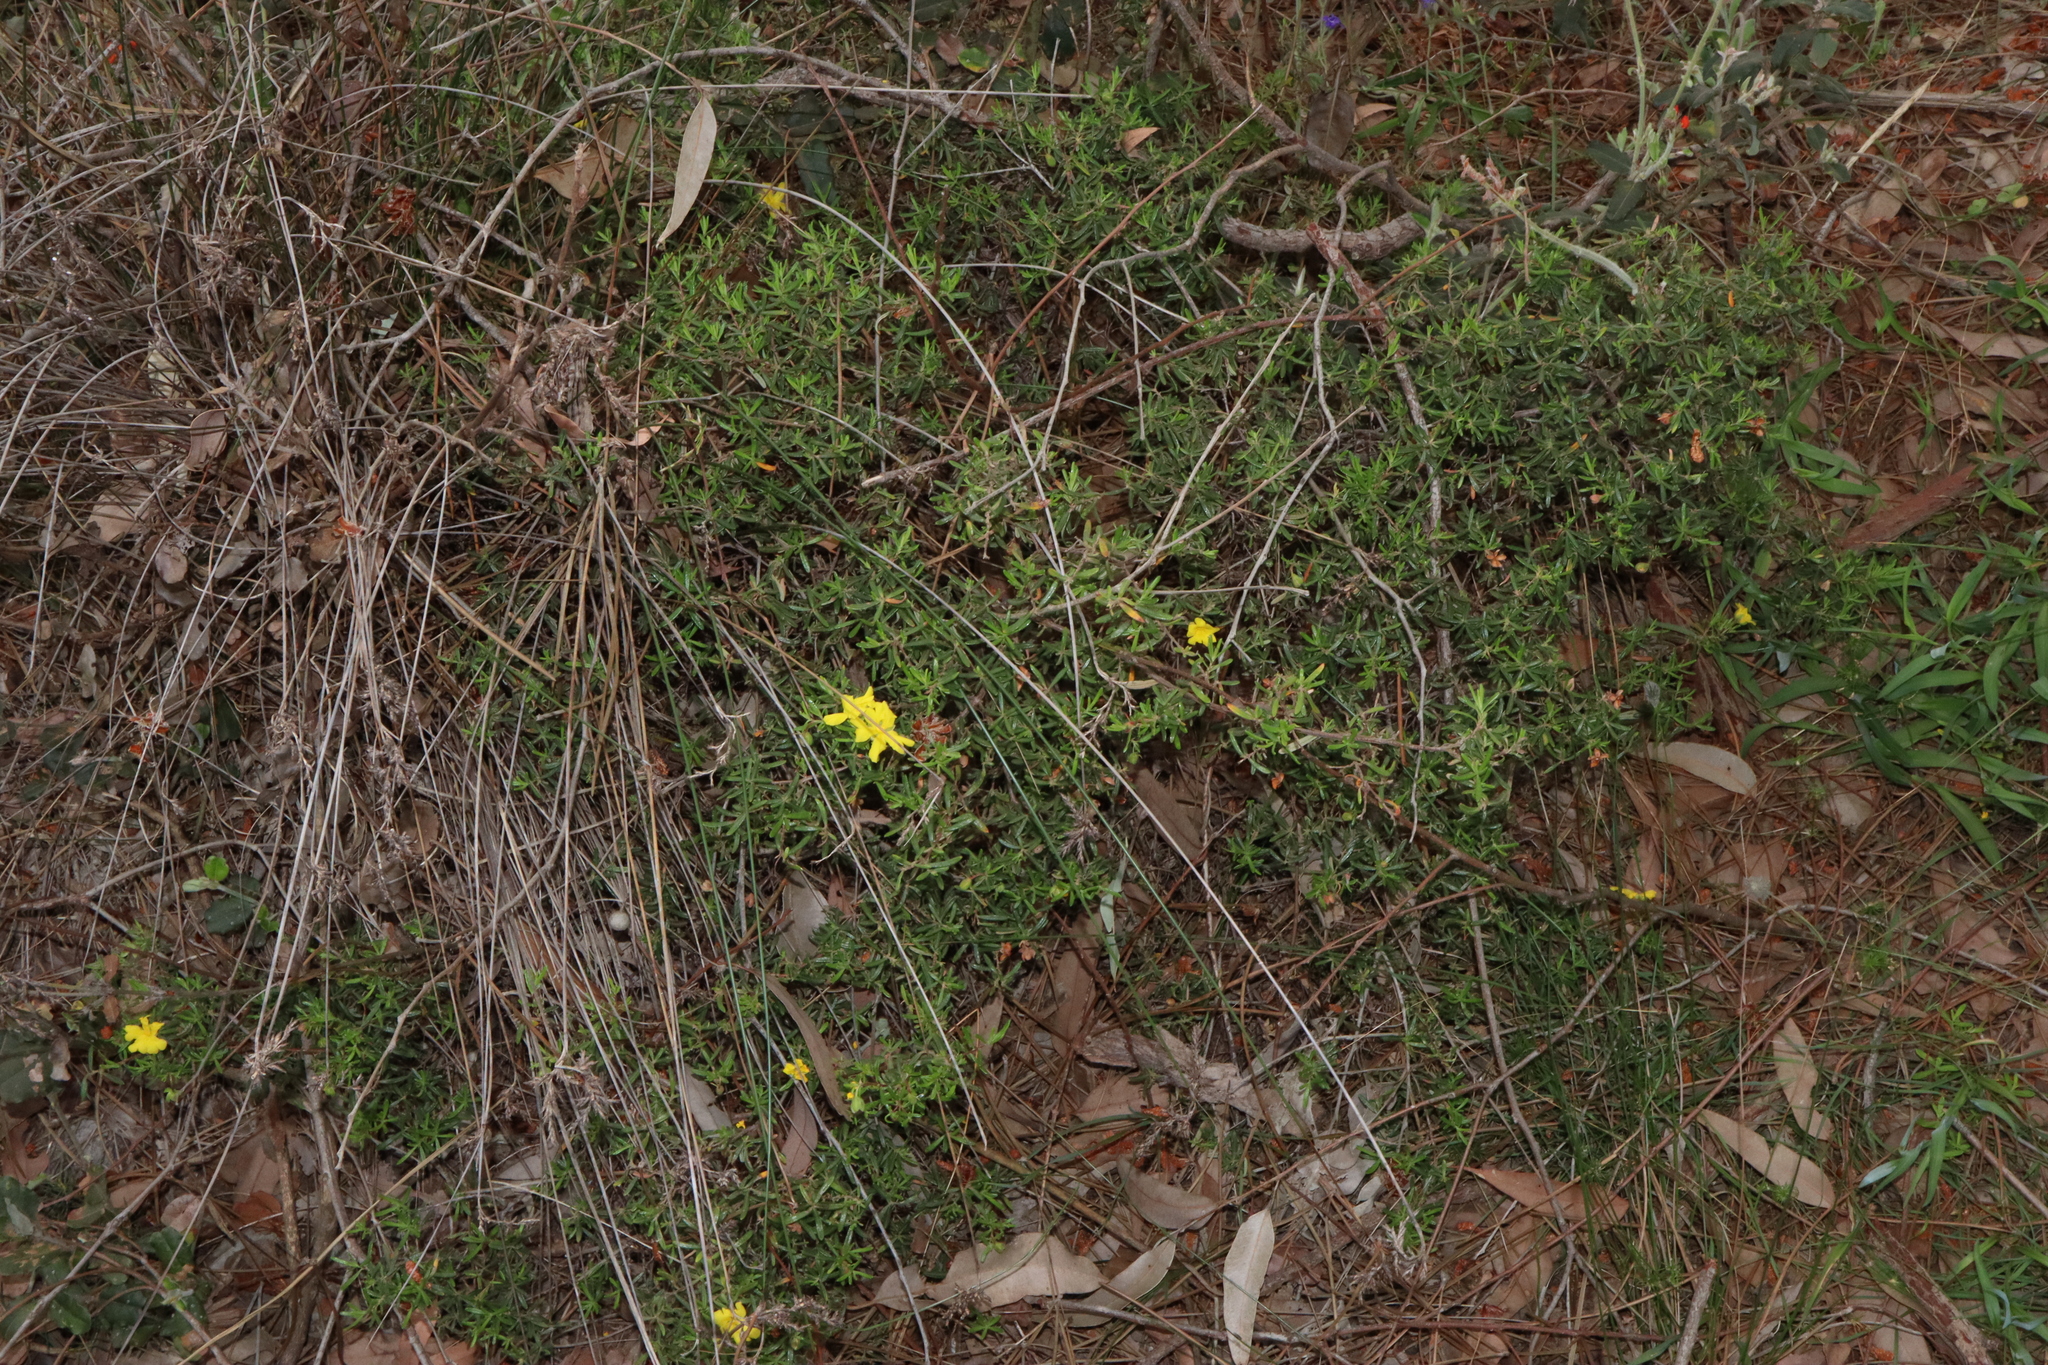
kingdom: Plantae
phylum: Tracheophyta
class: Magnoliopsida
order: Dilleniales
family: Dilleniaceae
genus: Hibbertia
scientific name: Hibbertia hypericoides
